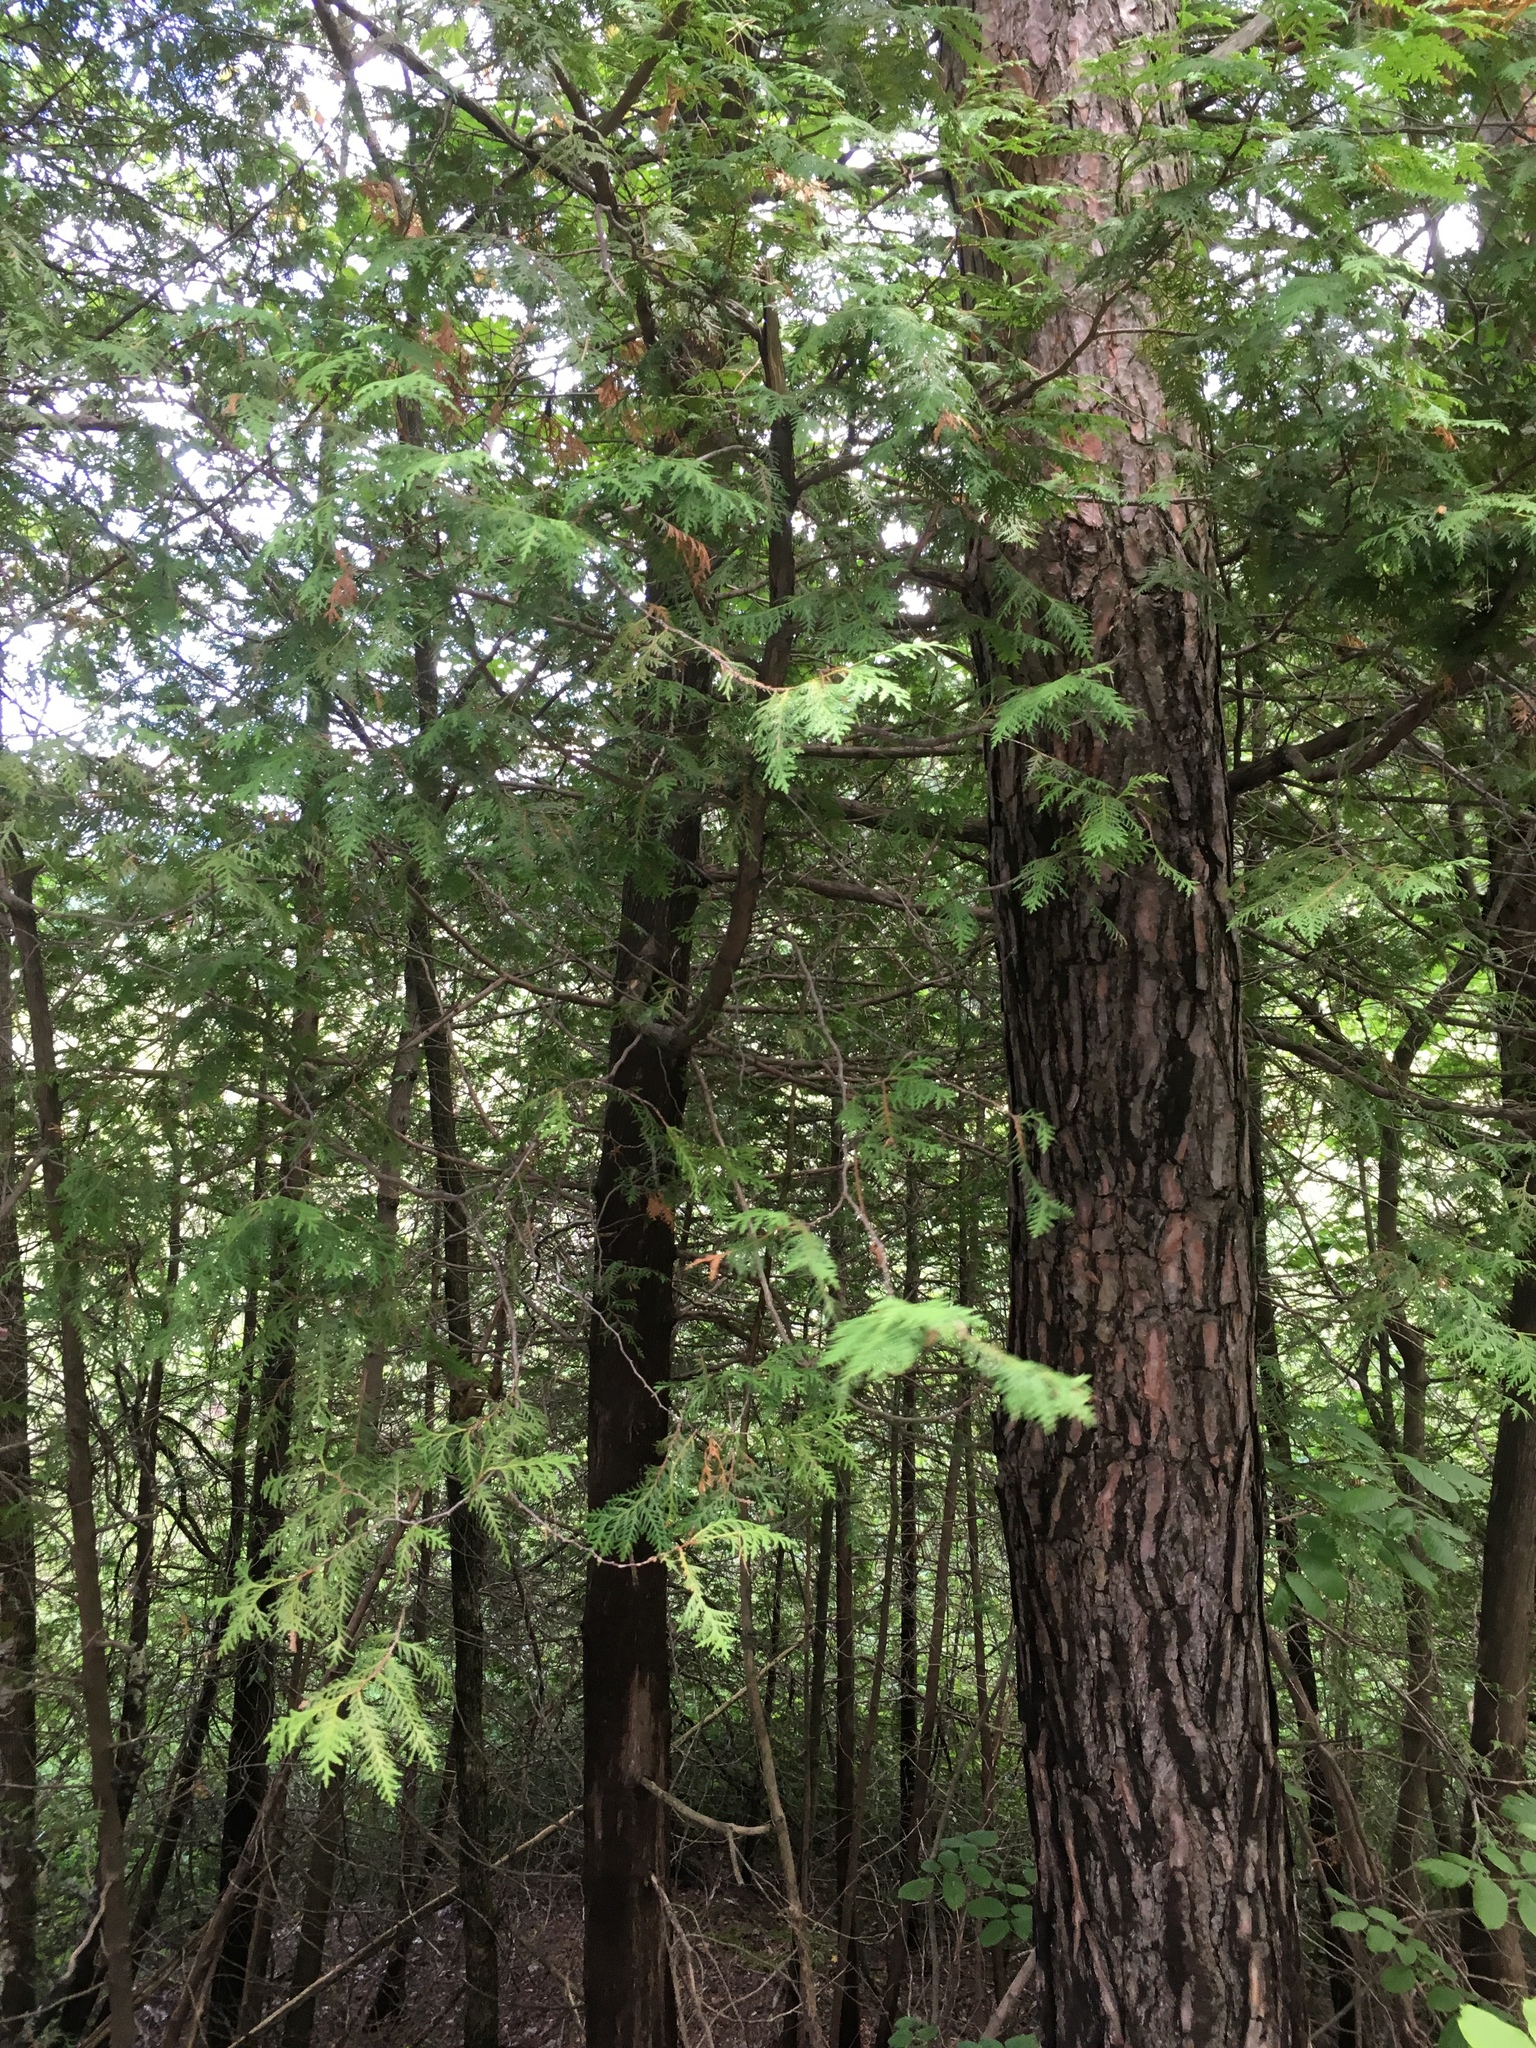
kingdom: Plantae
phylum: Tracheophyta
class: Pinopsida
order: Pinales
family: Cupressaceae
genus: Thuja
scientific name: Thuja occidentalis
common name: Northern white-cedar
